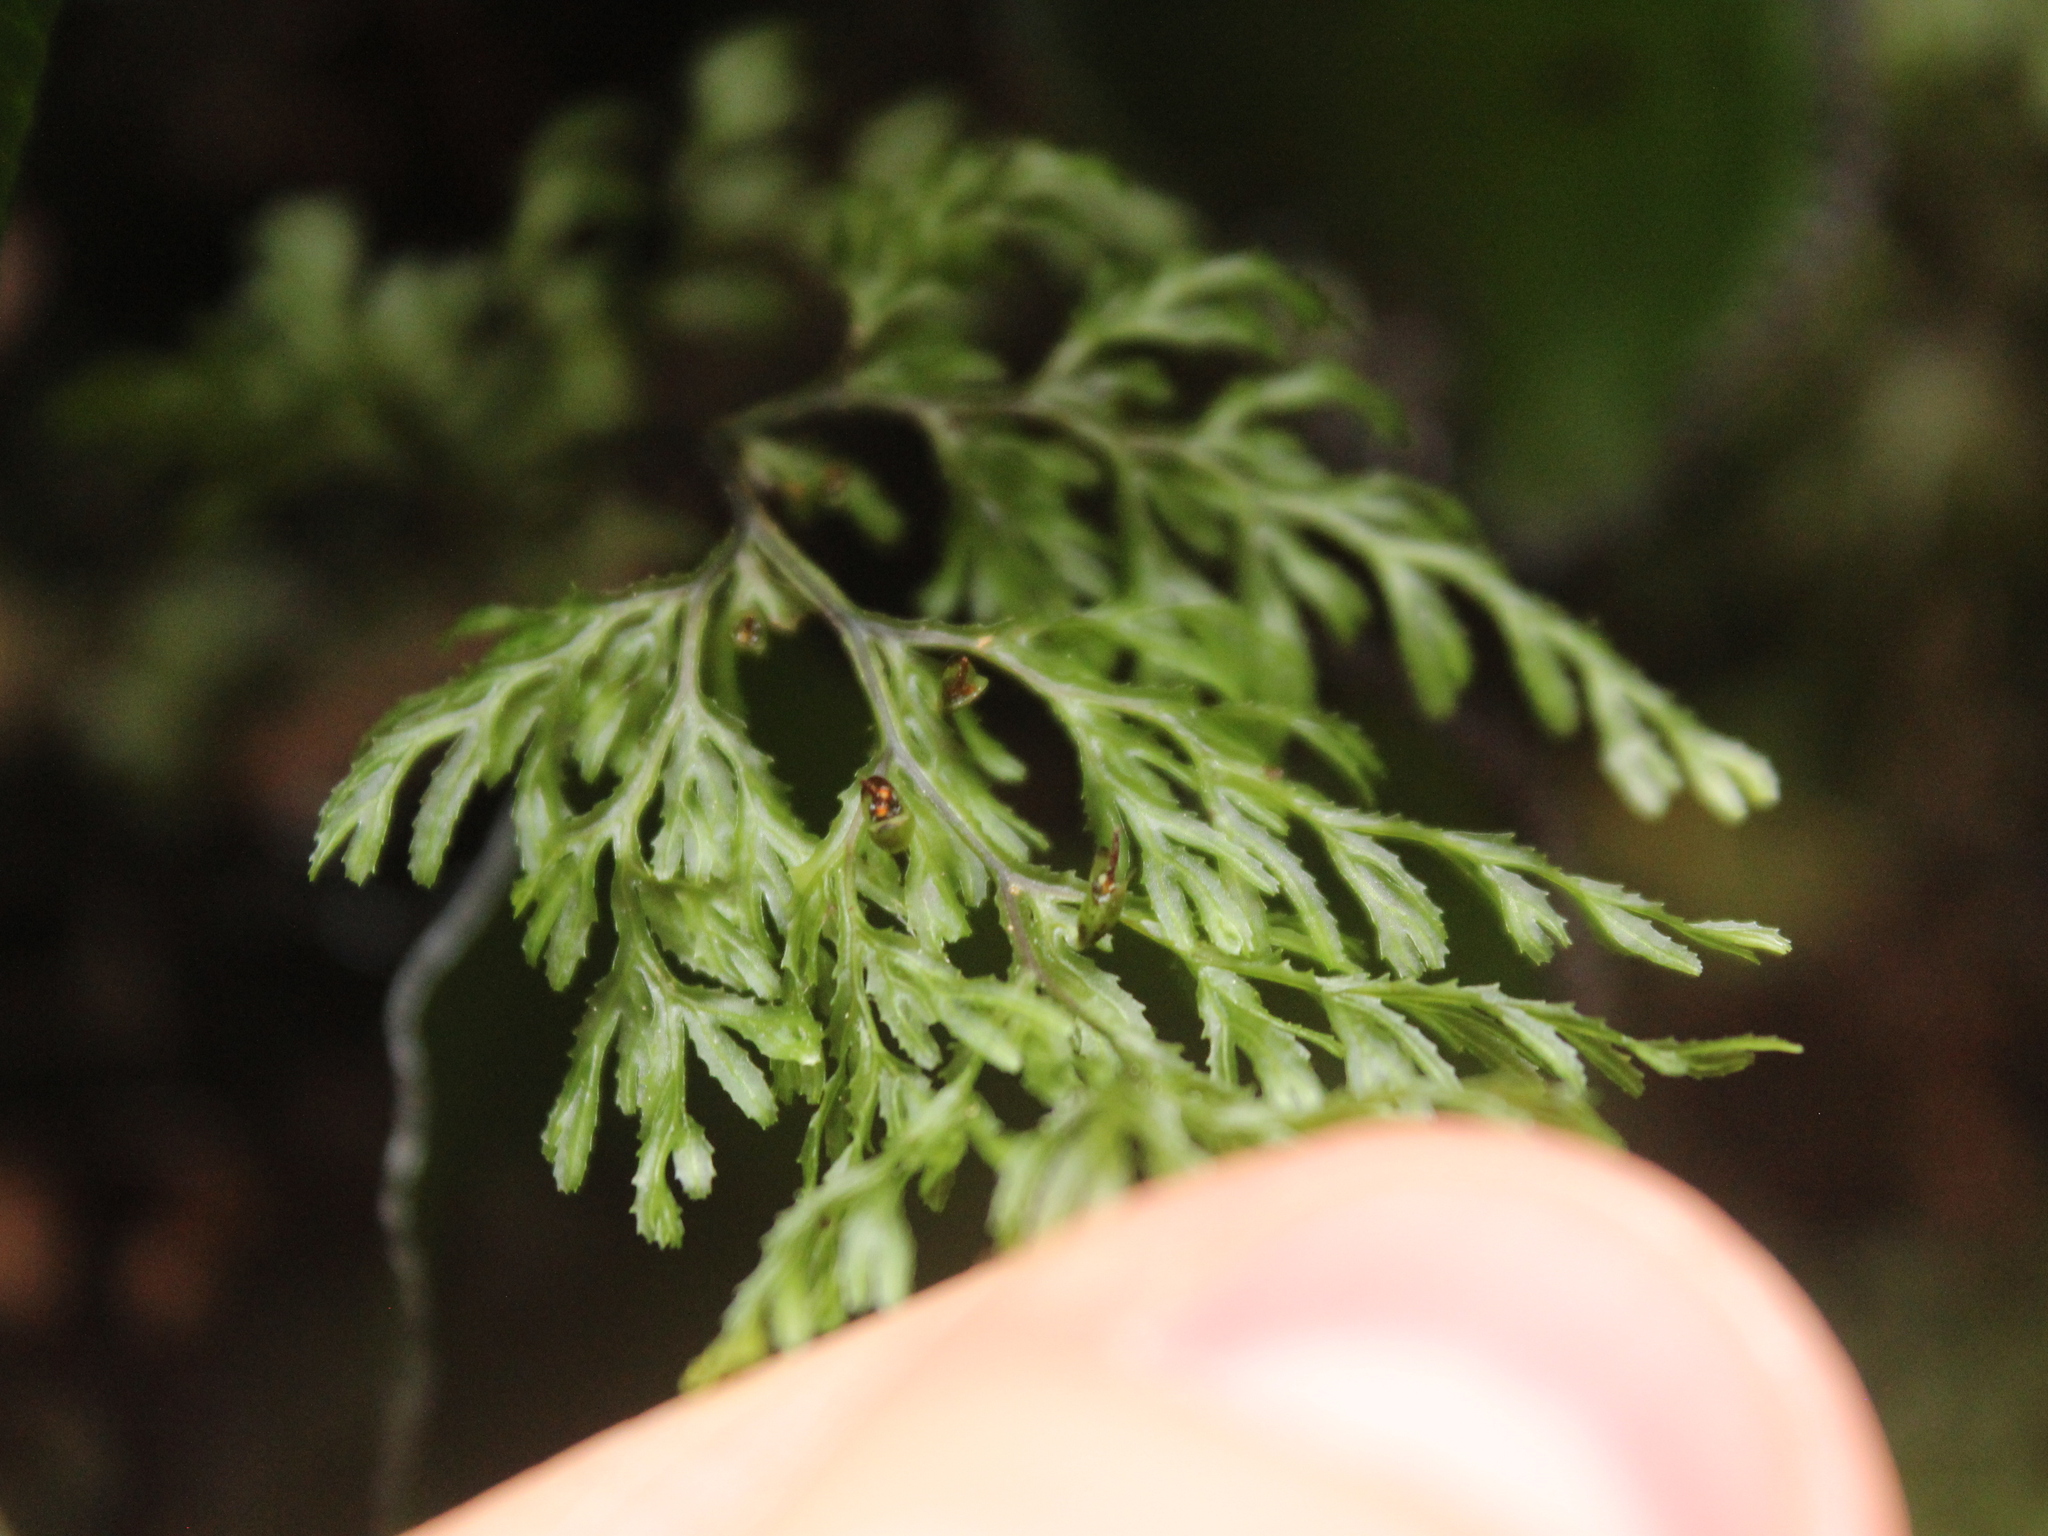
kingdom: Plantae
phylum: Tracheophyta
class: Polypodiopsida
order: Hymenophyllales
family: Hymenophyllaceae
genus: Hymenophyllum
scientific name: Hymenophyllum multifidum
